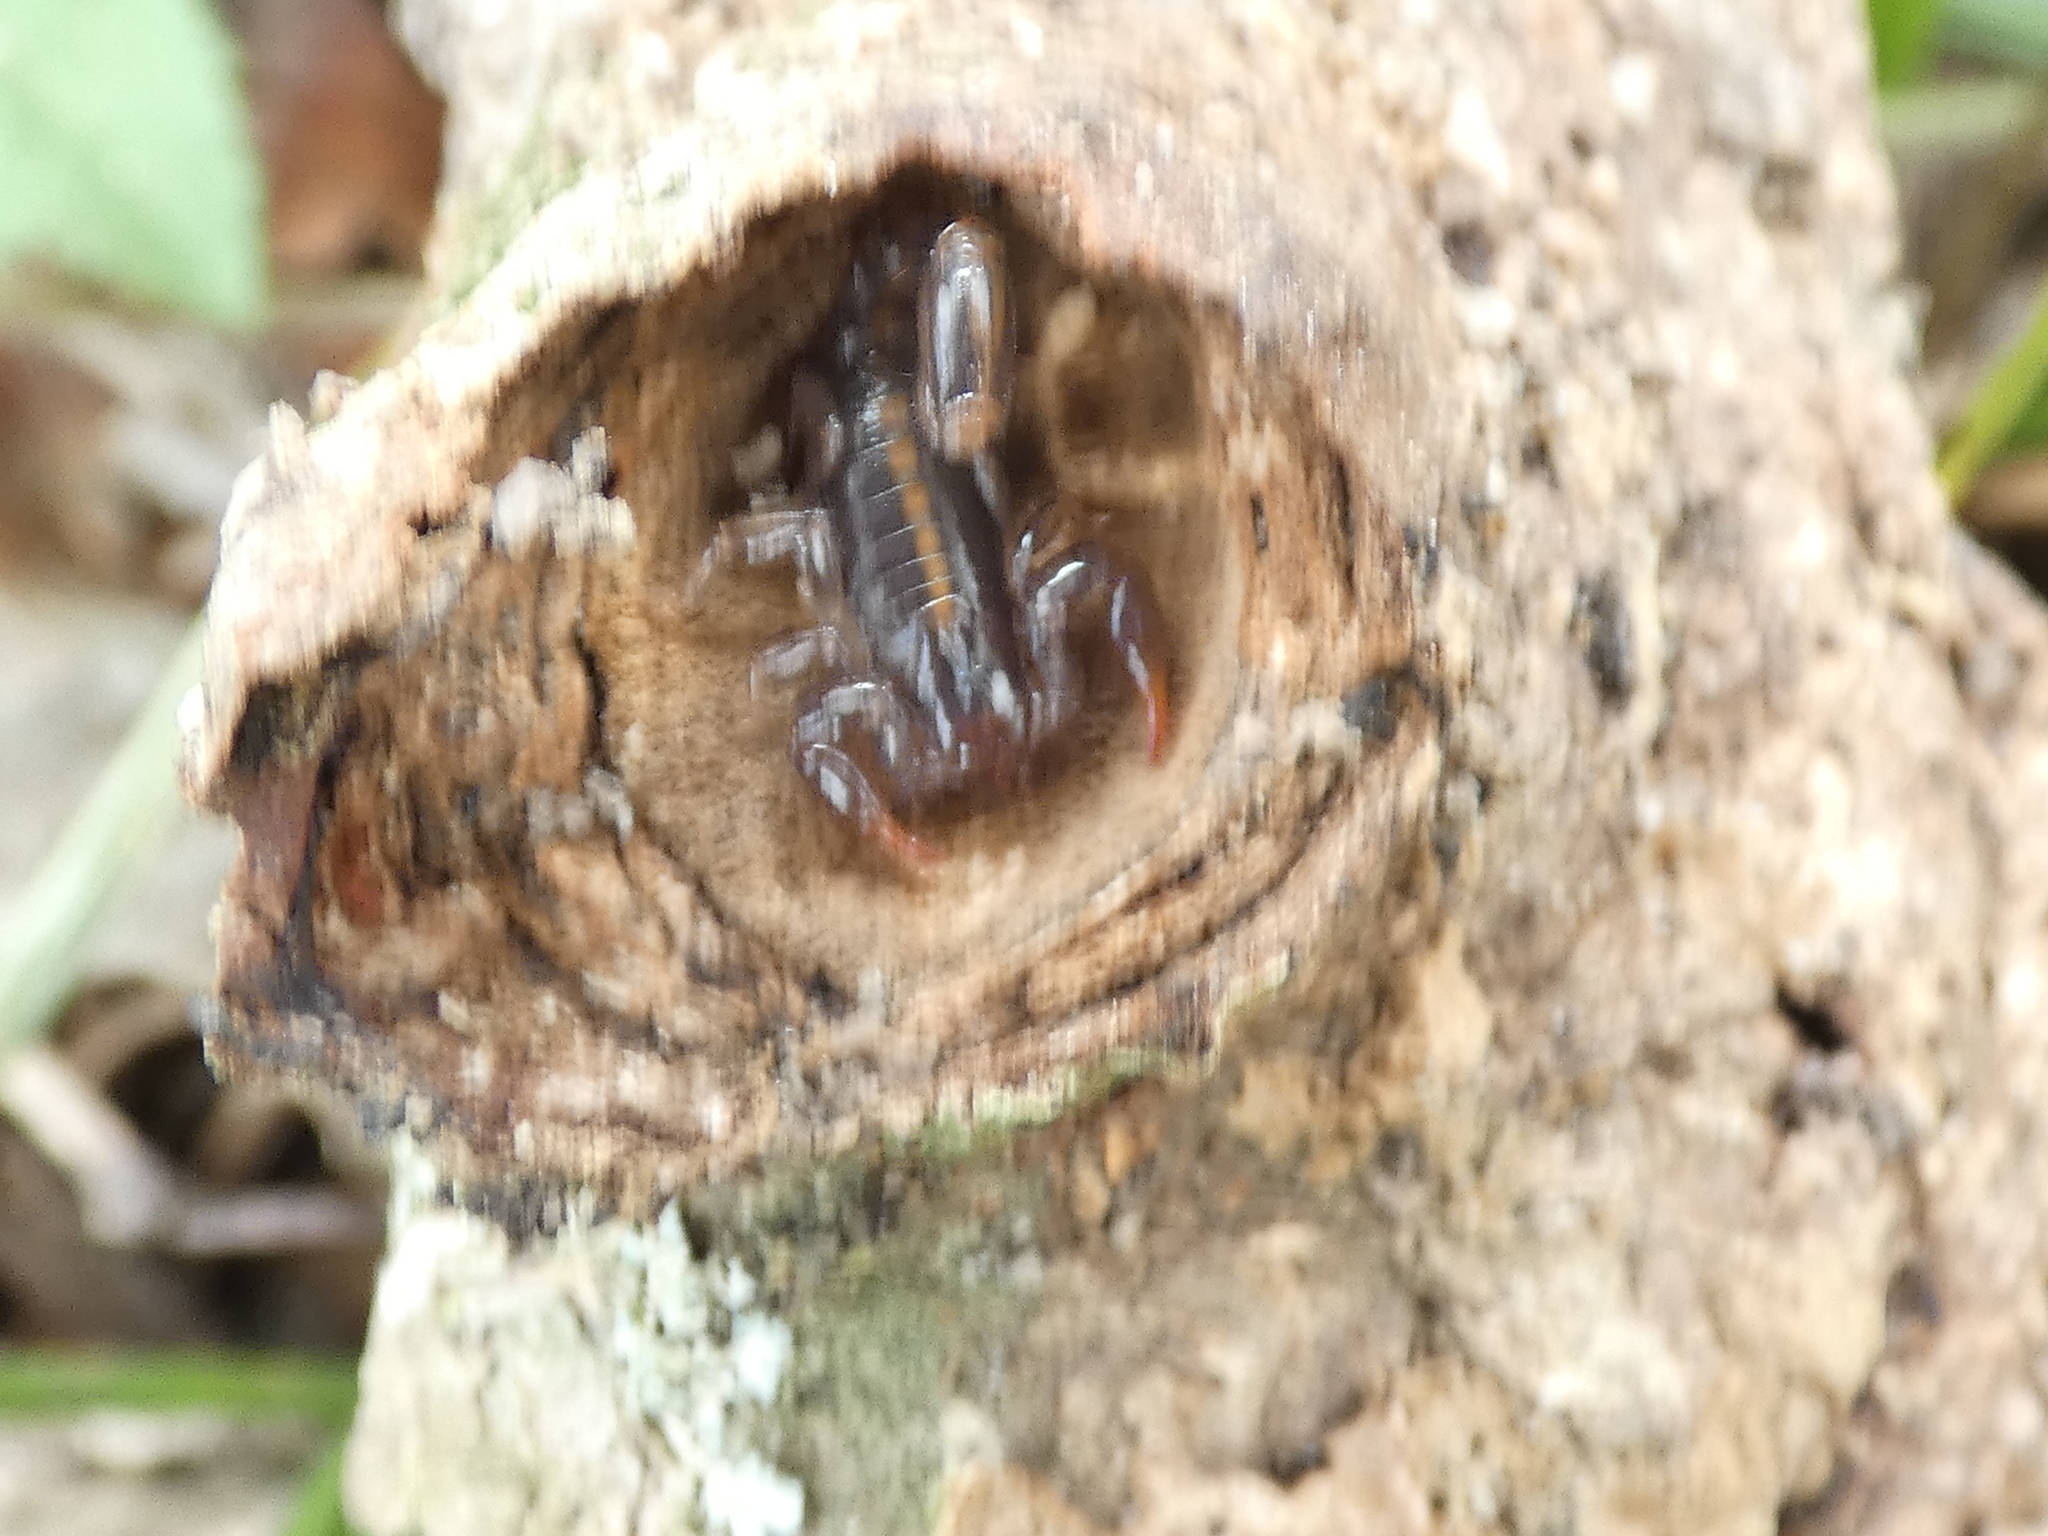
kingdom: Animalia
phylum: Arthropoda
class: Arachnida
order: Scorpiones
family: Bothriuridae
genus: Bothriurus
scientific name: Bothriurus asper
